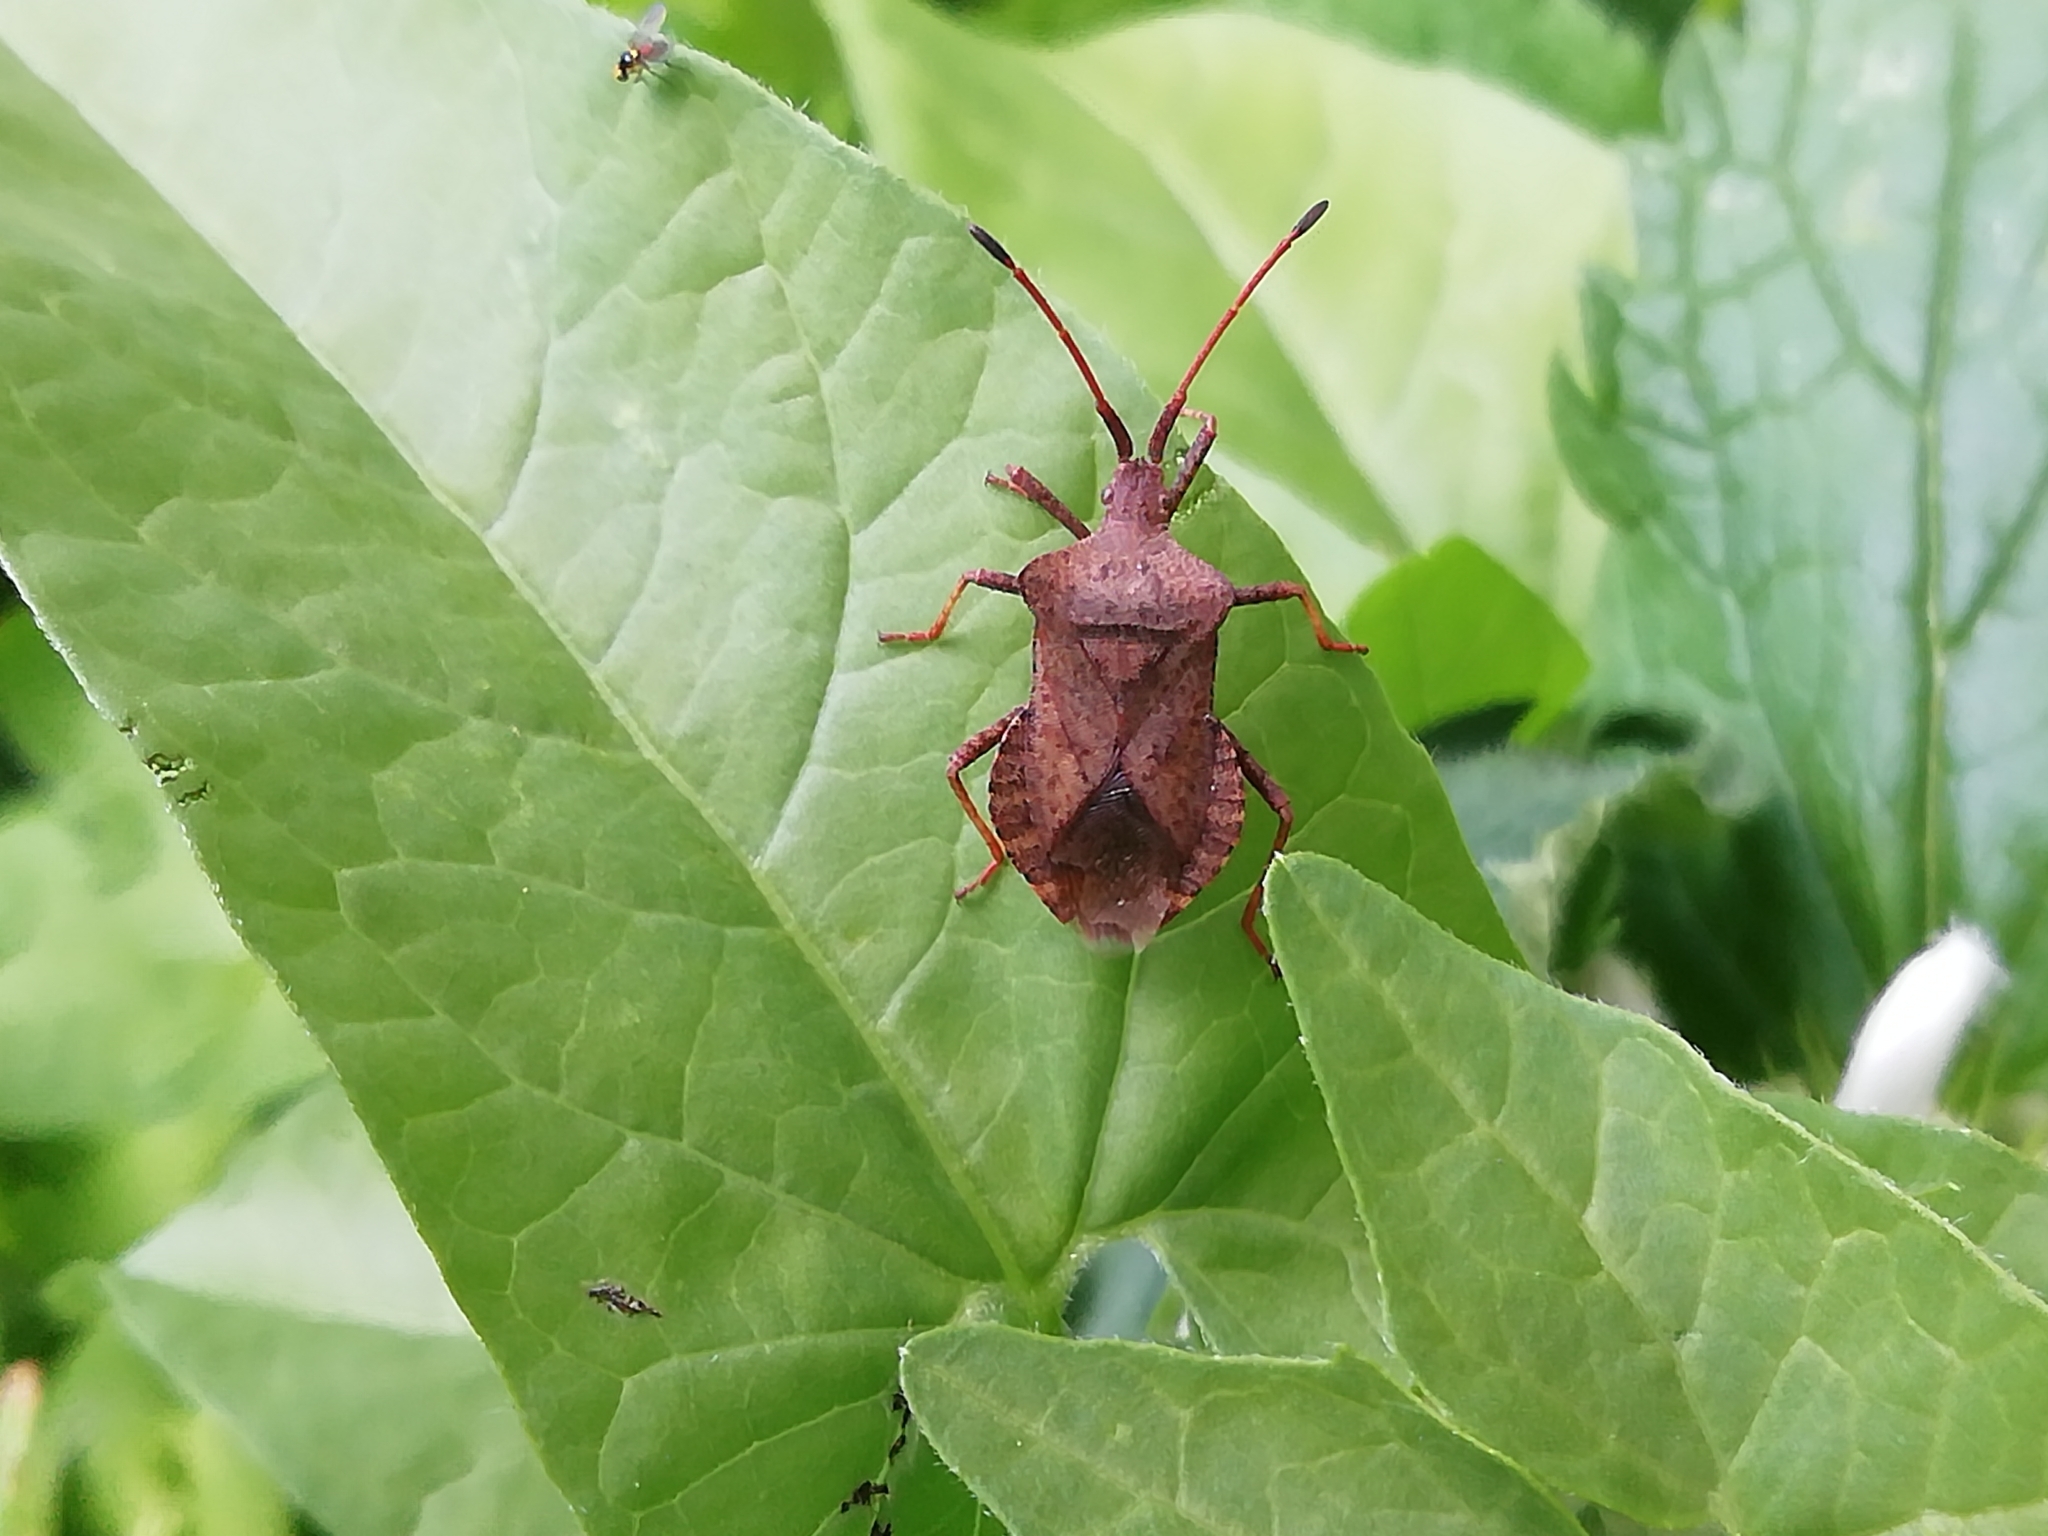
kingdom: Animalia
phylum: Arthropoda
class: Insecta
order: Hemiptera
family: Coreidae
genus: Coreus
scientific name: Coreus marginatus
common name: Dock bug
